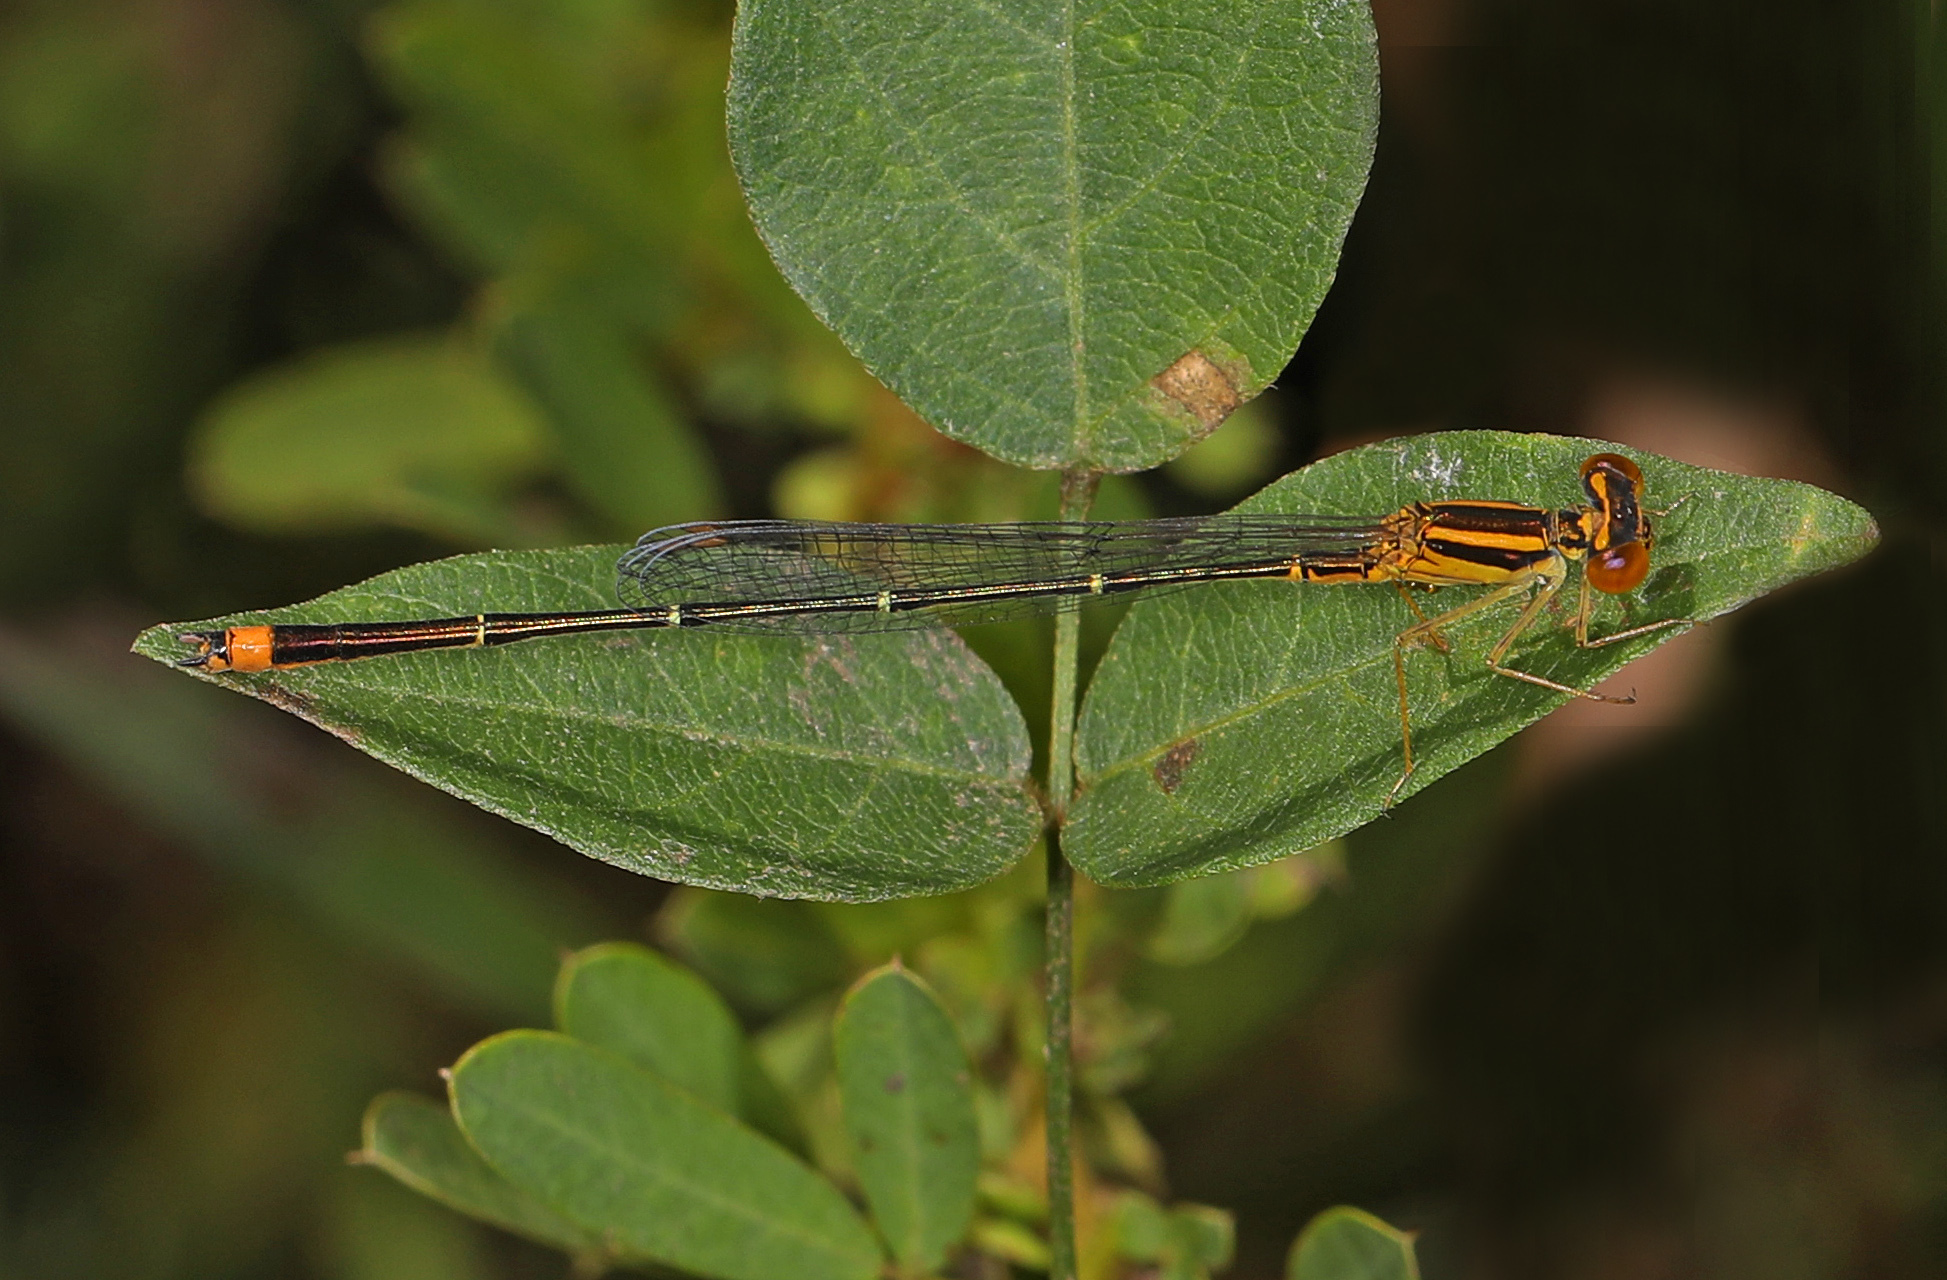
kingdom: Animalia
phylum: Arthropoda
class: Insecta
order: Odonata
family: Coenagrionidae
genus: Enallagma
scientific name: Enallagma signatum
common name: Orange bluet
